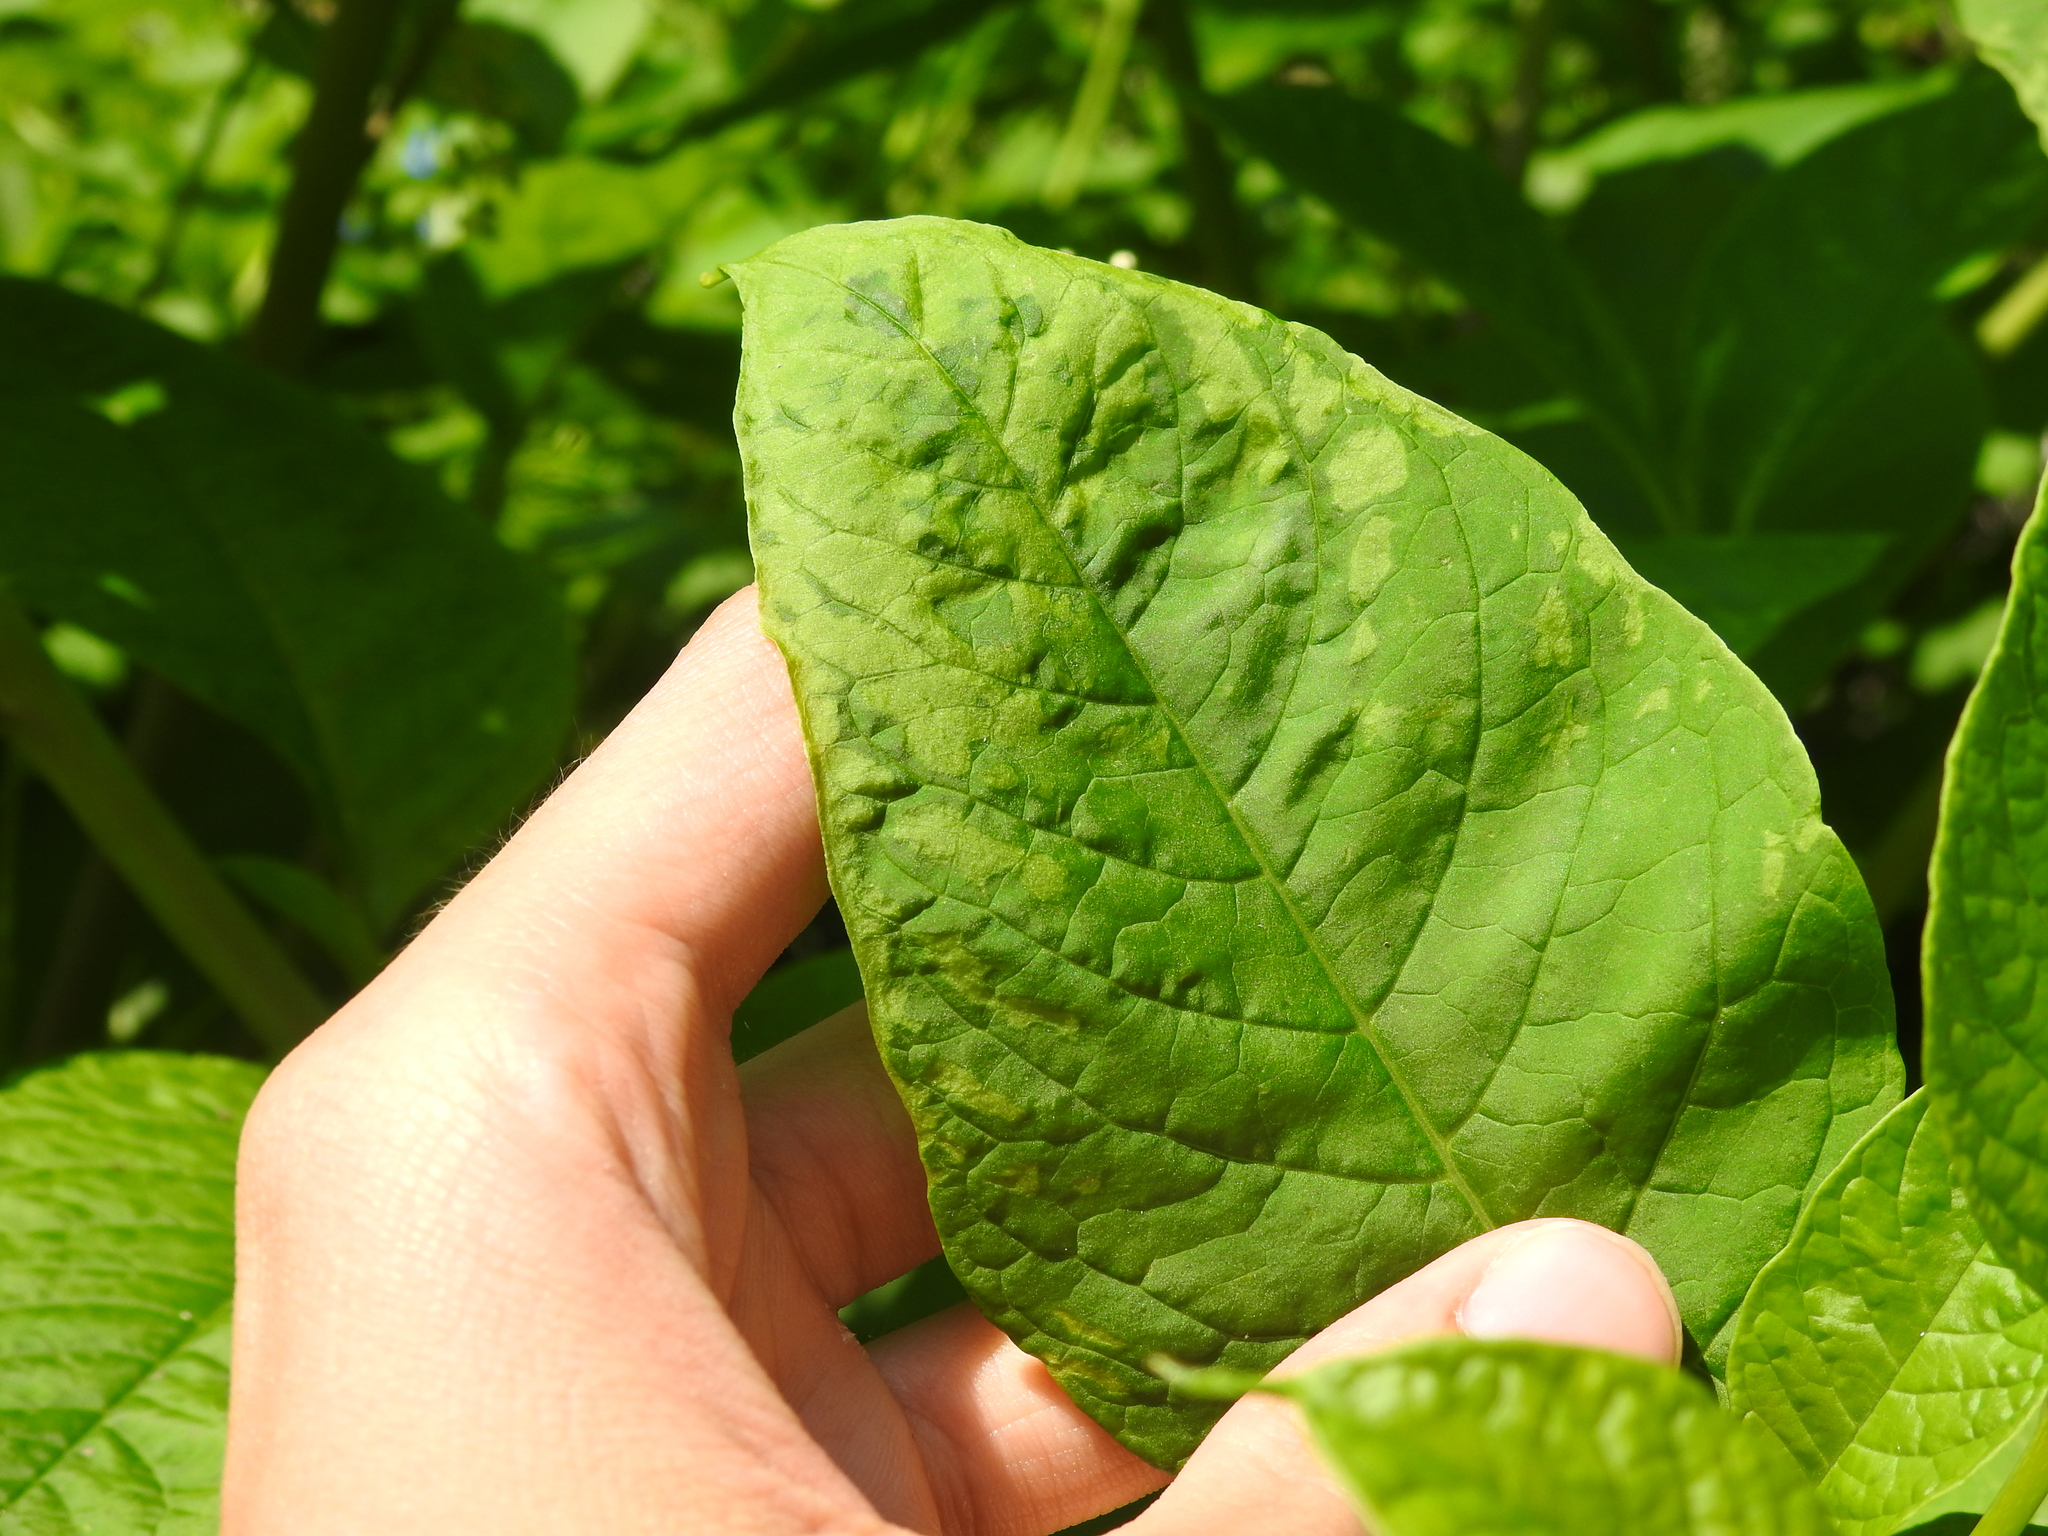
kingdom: Viruses
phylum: Pisuviricota
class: Stelpaviricetes
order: Patatavirales
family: Potyviridae
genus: Potyvirus
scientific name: Potyvirus Pokeweed mosaic virus
